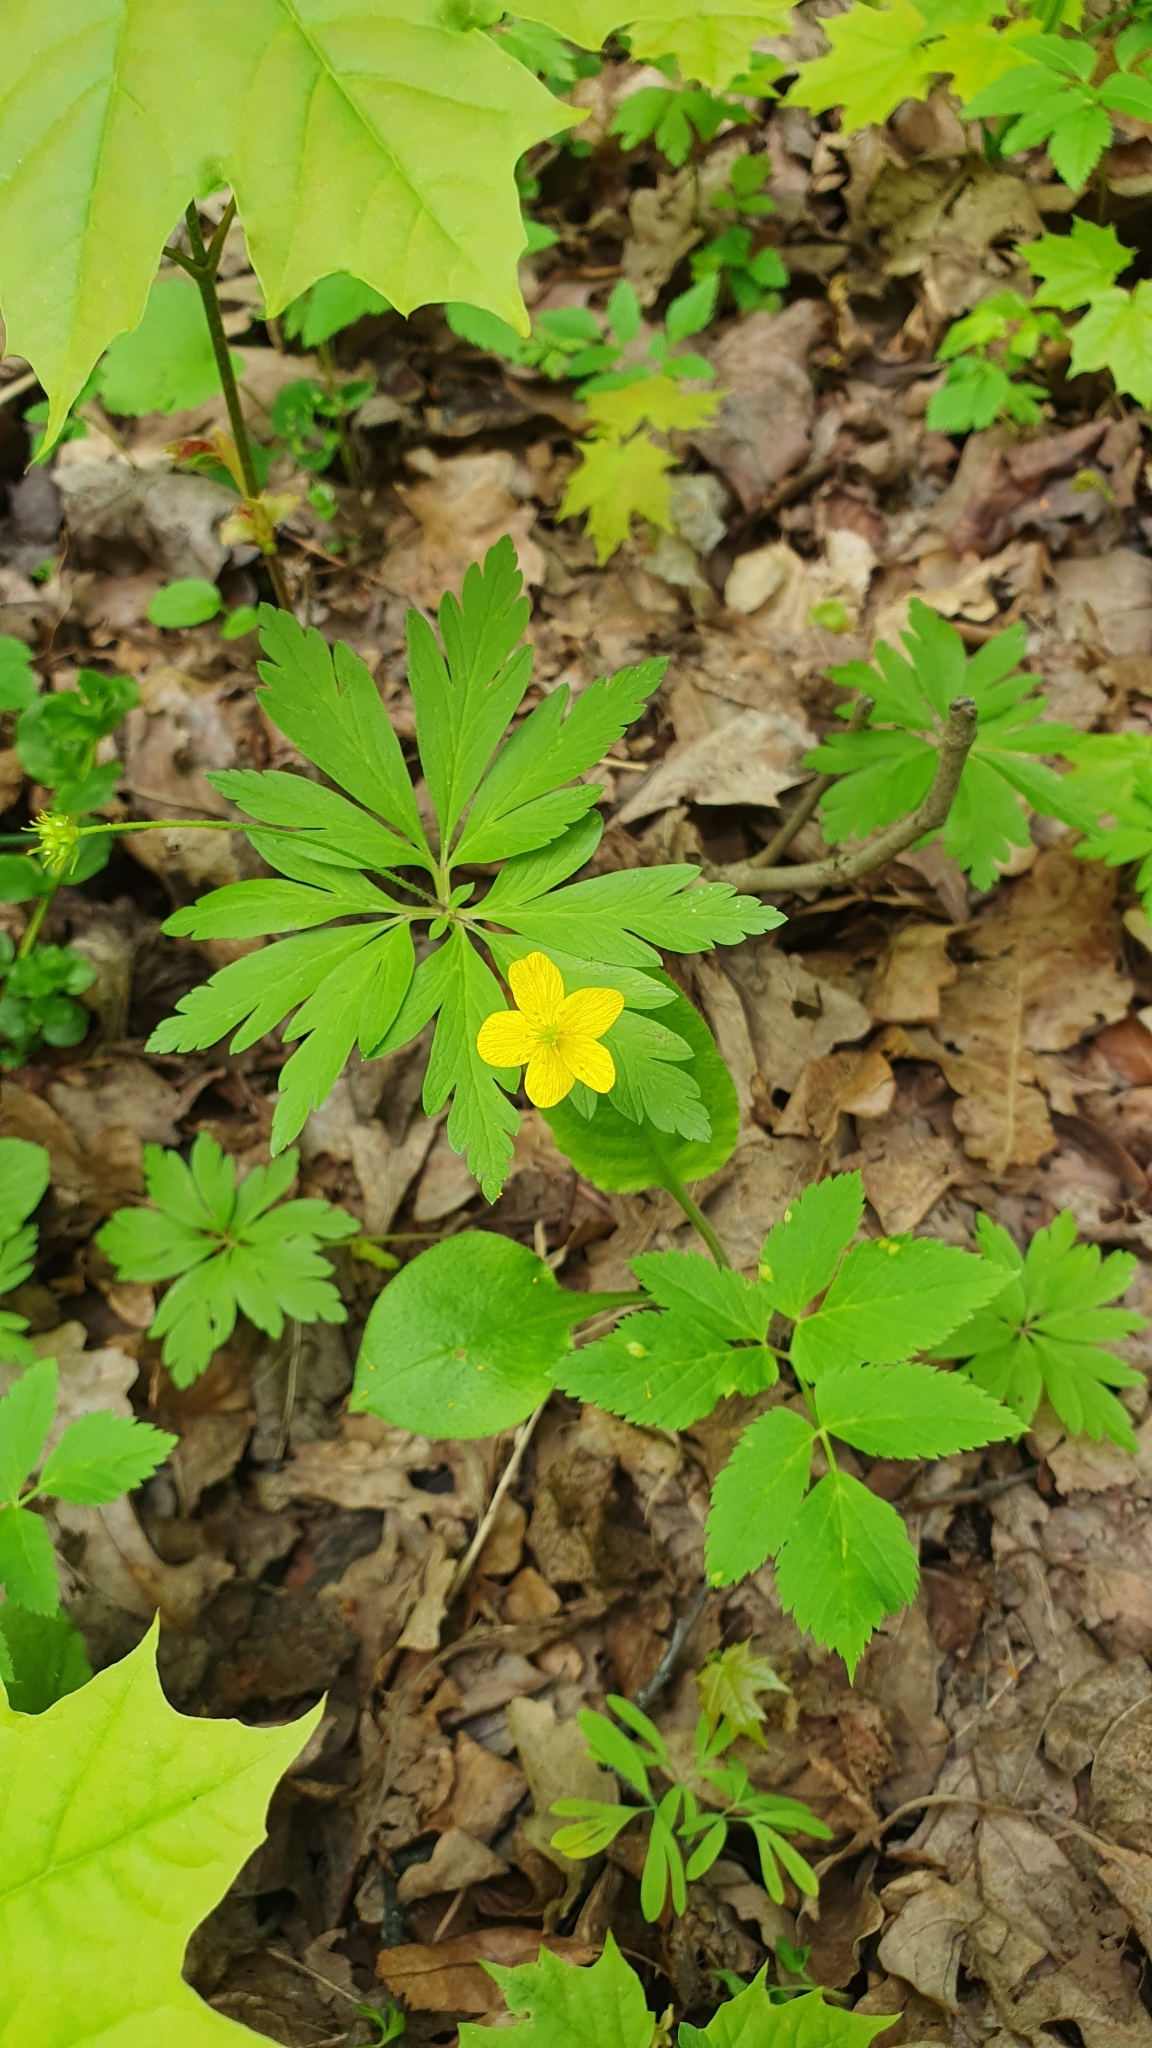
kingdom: Plantae
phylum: Tracheophyta
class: Magnoliopsida
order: Ranunculales
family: Ranunculaceae
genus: Anemone
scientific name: Anemone ranunculoides
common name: Yellow anemone
